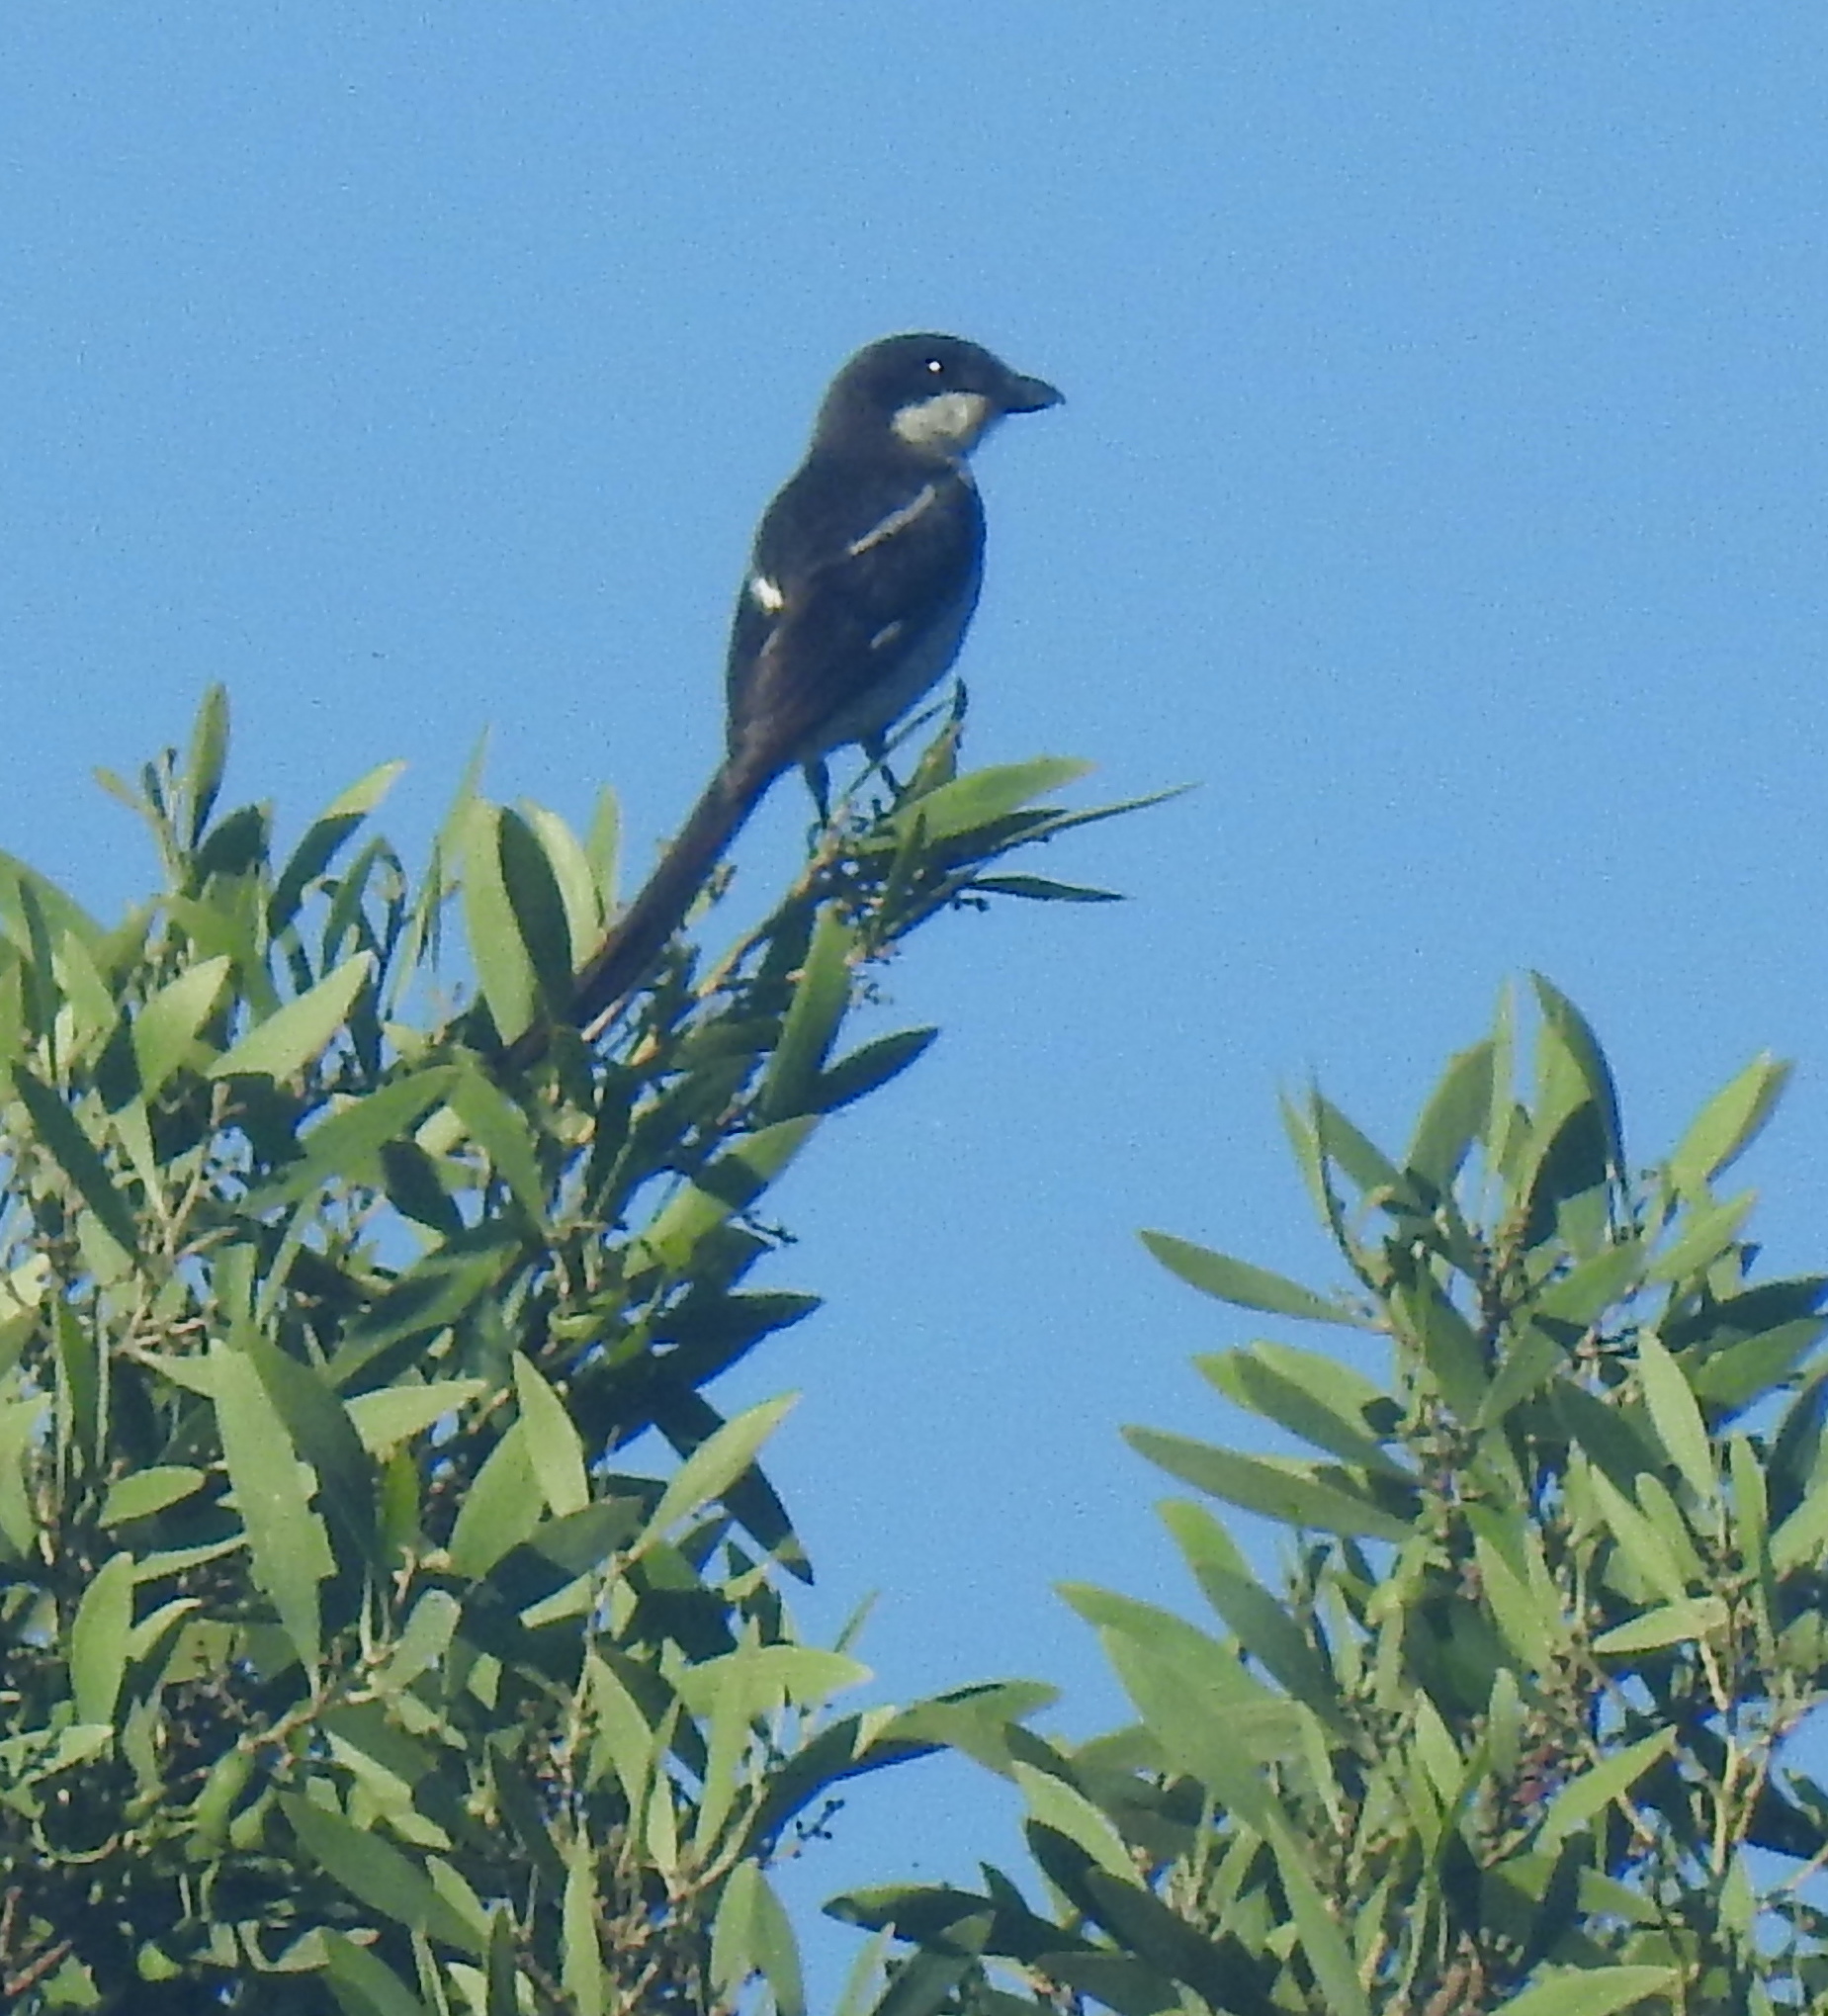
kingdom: Animalia
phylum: Chordata
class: Aves
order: Passeriformes
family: Laniidae
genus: Lanius
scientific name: Lanius collaris
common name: Southern fiscal
